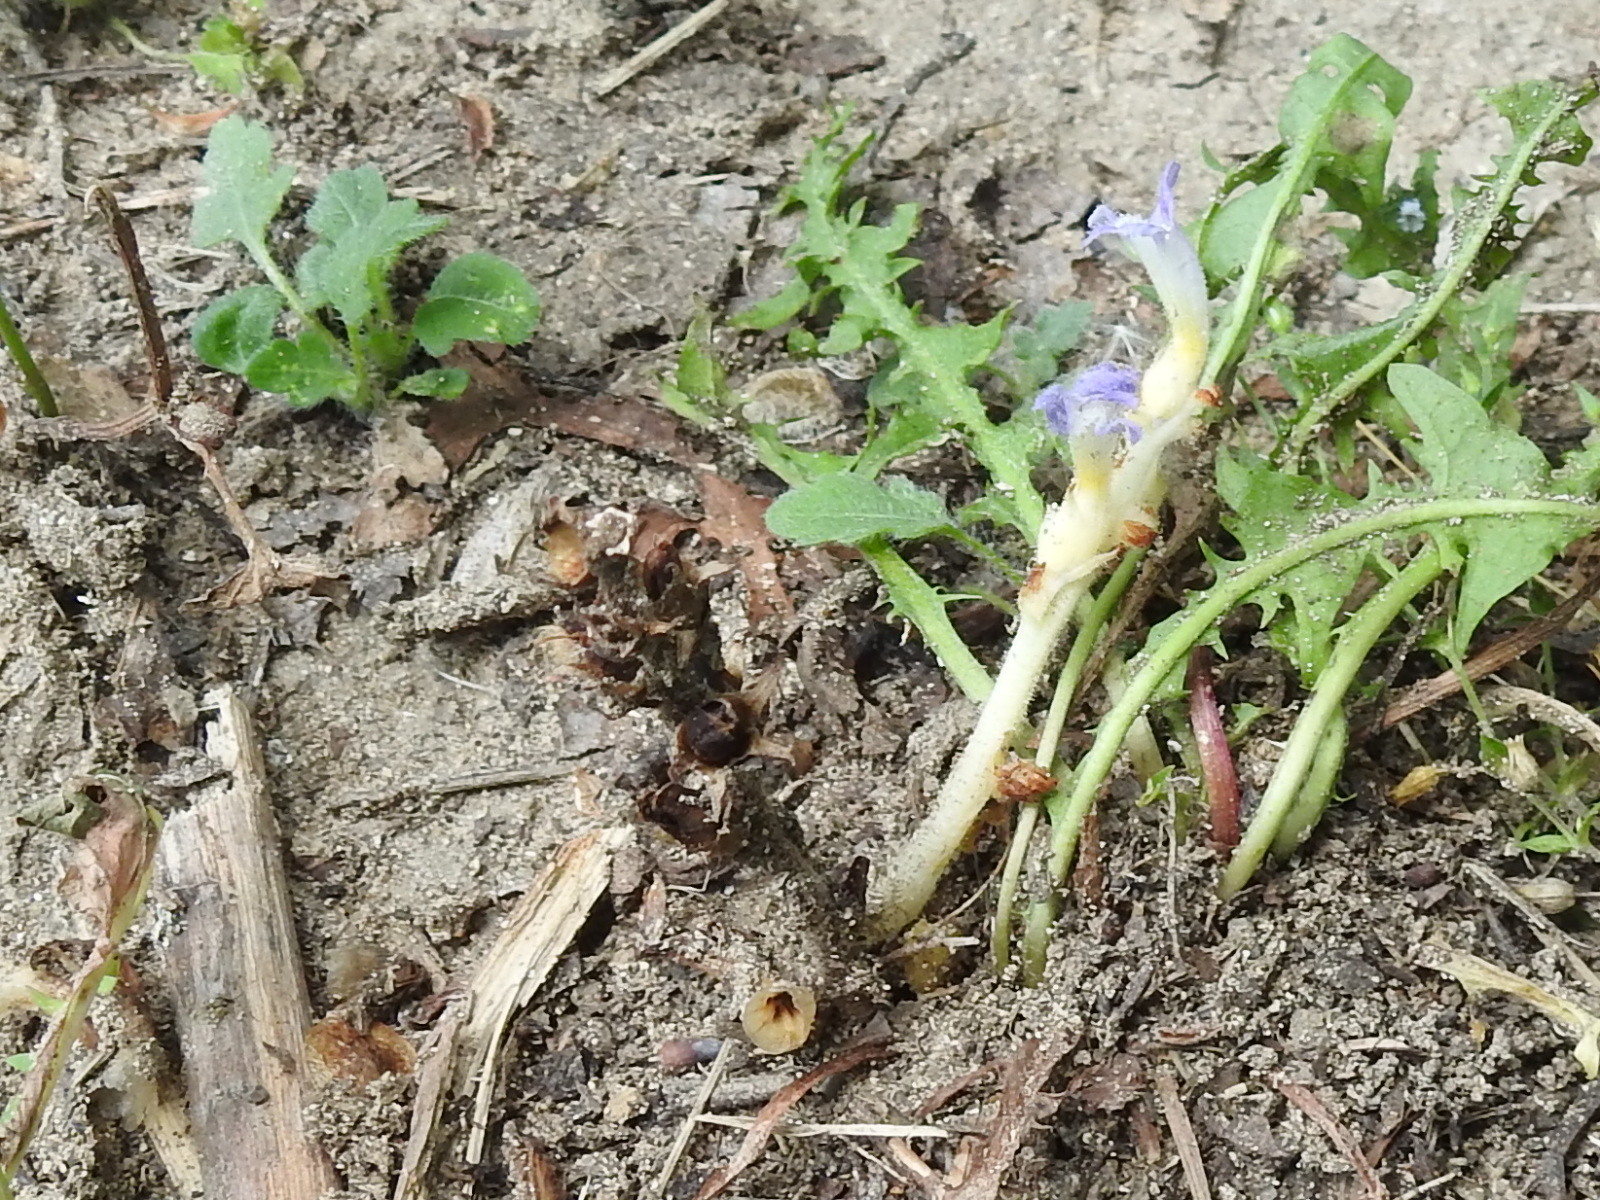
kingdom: Plantae
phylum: Tracheophyta
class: Magnoliopsida
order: Lamiales
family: Orobanchaceae
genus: Phelipanche
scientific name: Phelipanche ramosa
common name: Branched broomrape
